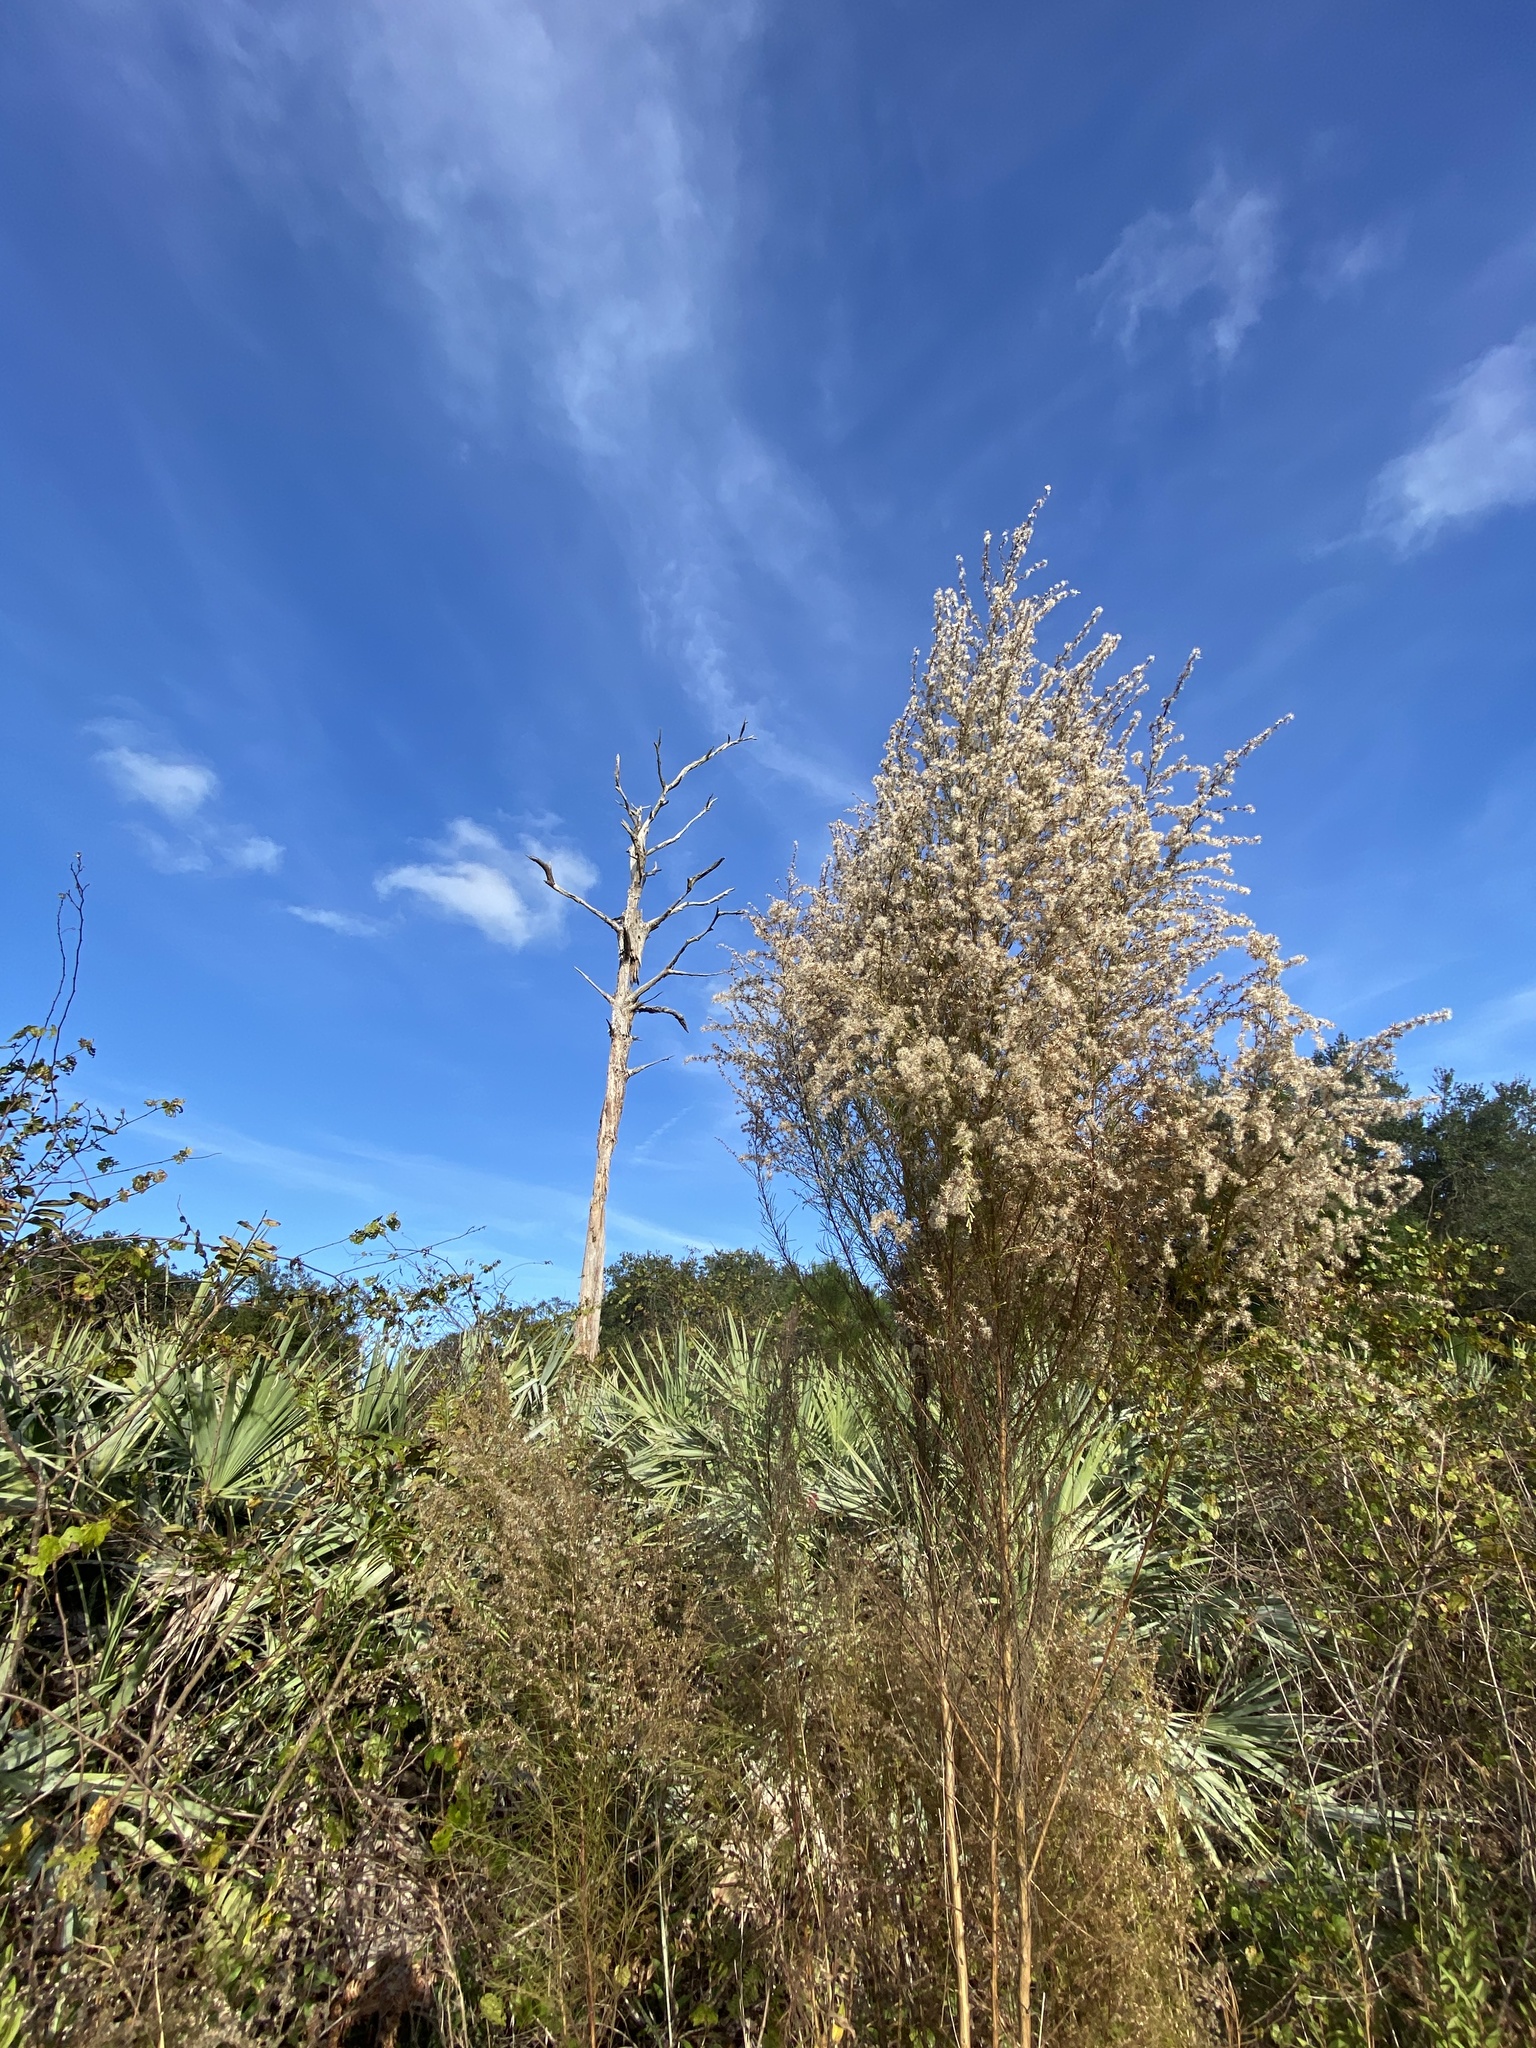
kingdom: Plantae
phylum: Tracheophyta
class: Magnoliopsida
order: Asterales
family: Asteraceae
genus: Eupatorium
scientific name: Eupatorium capillifolium
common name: Dog-fennel
